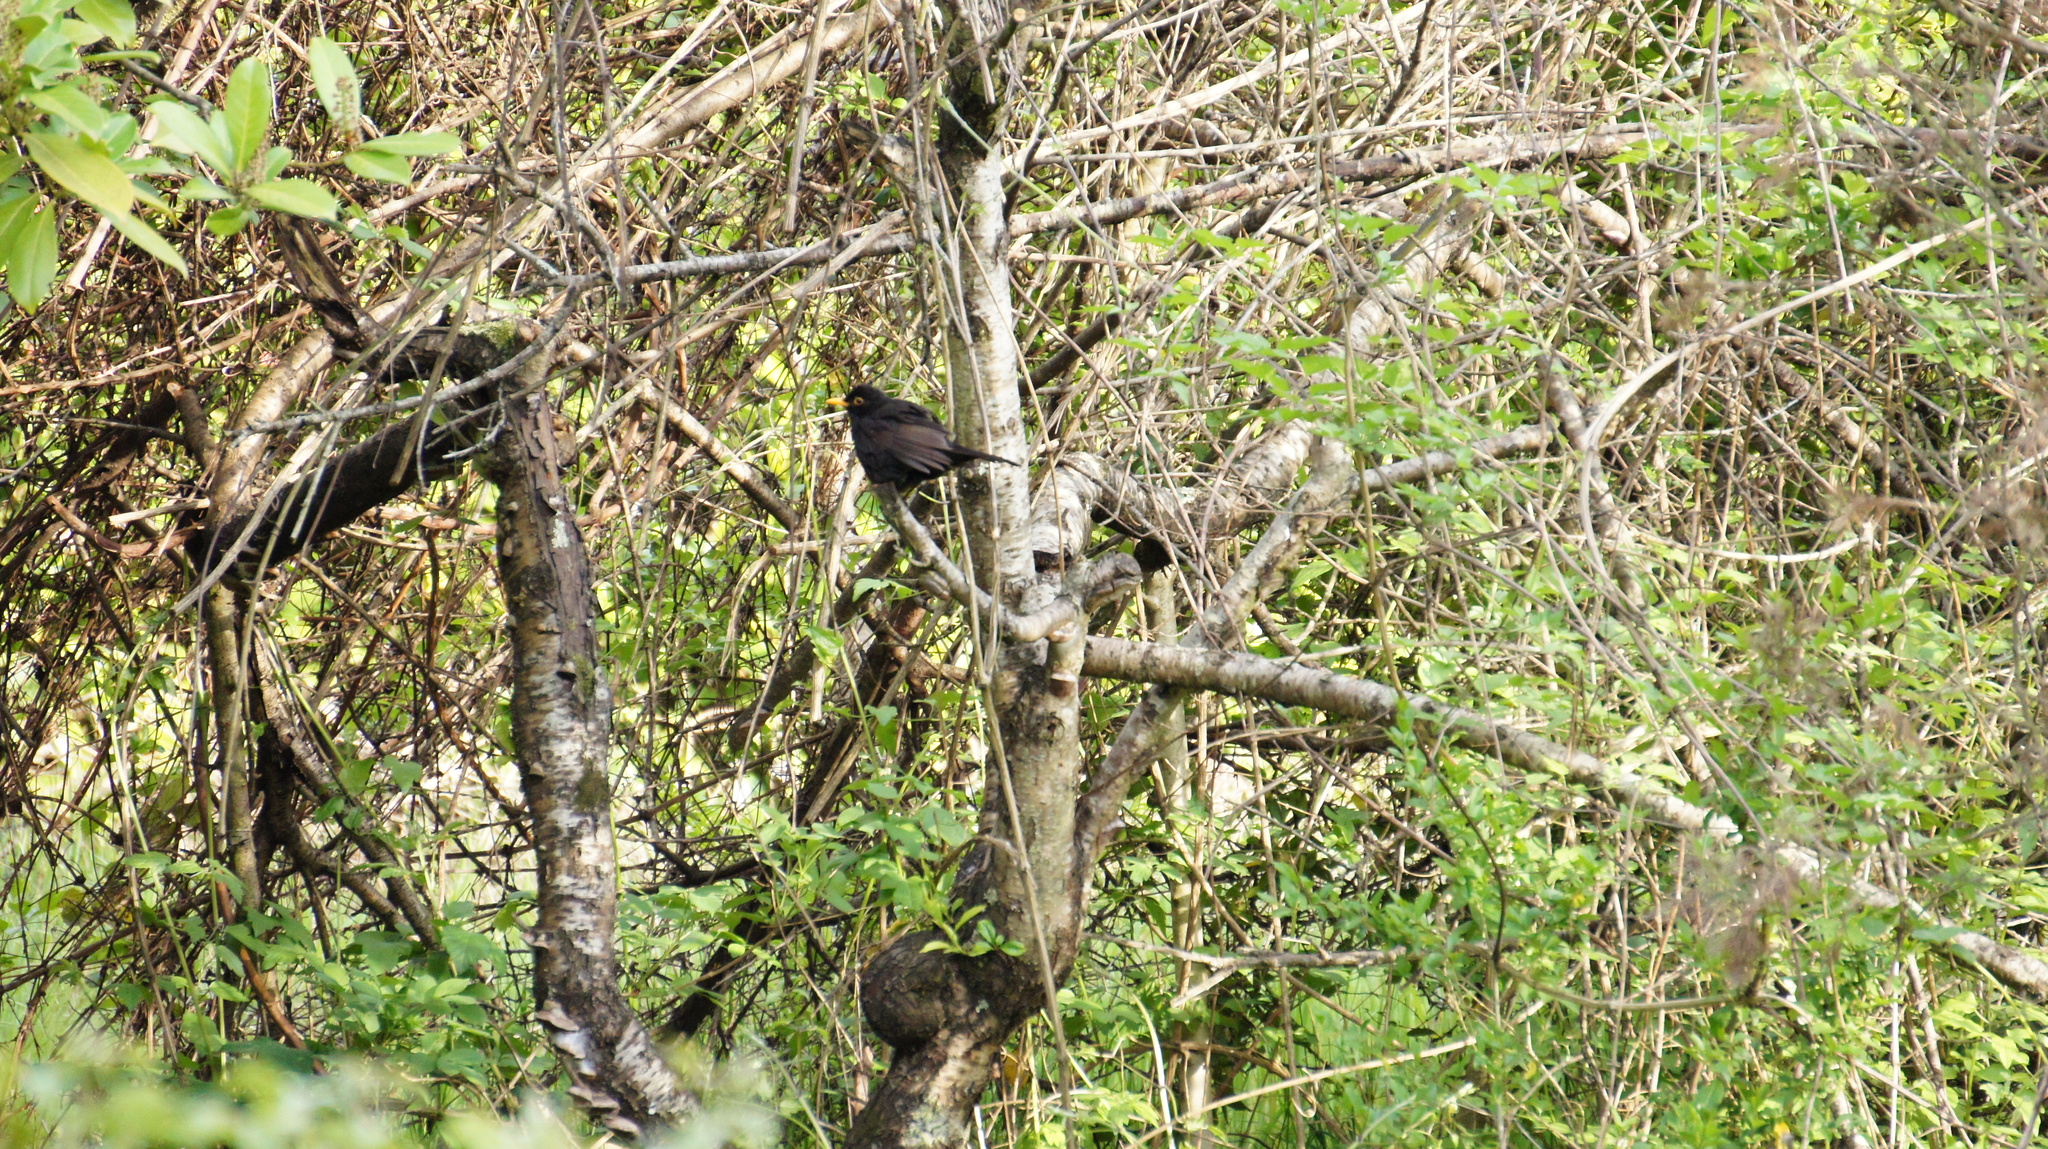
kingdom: Animalia
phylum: Chordata
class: Aves
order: Passeriformes
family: Turdidae
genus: Turdus
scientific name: Turdus merula
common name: Common blackbird
